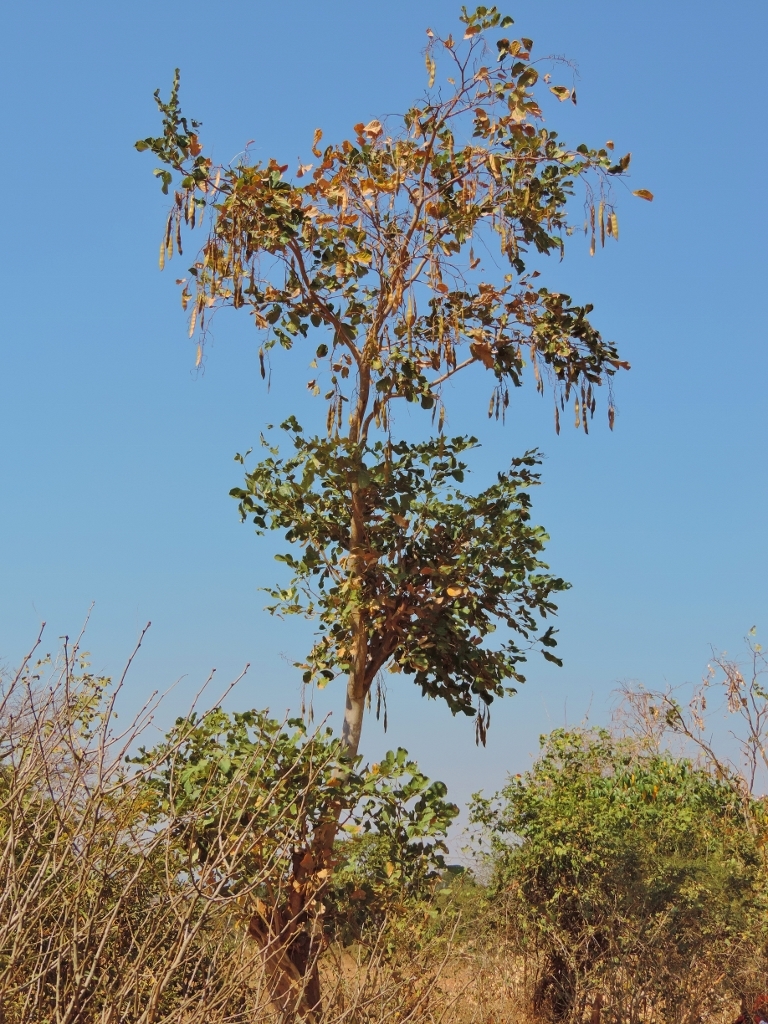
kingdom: Plantae
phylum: Tracheophyta
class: Magnoliopsida
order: Fabales
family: Fabaceae
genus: Millettia
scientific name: Millettia stuhlmannii
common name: Panga-panga
